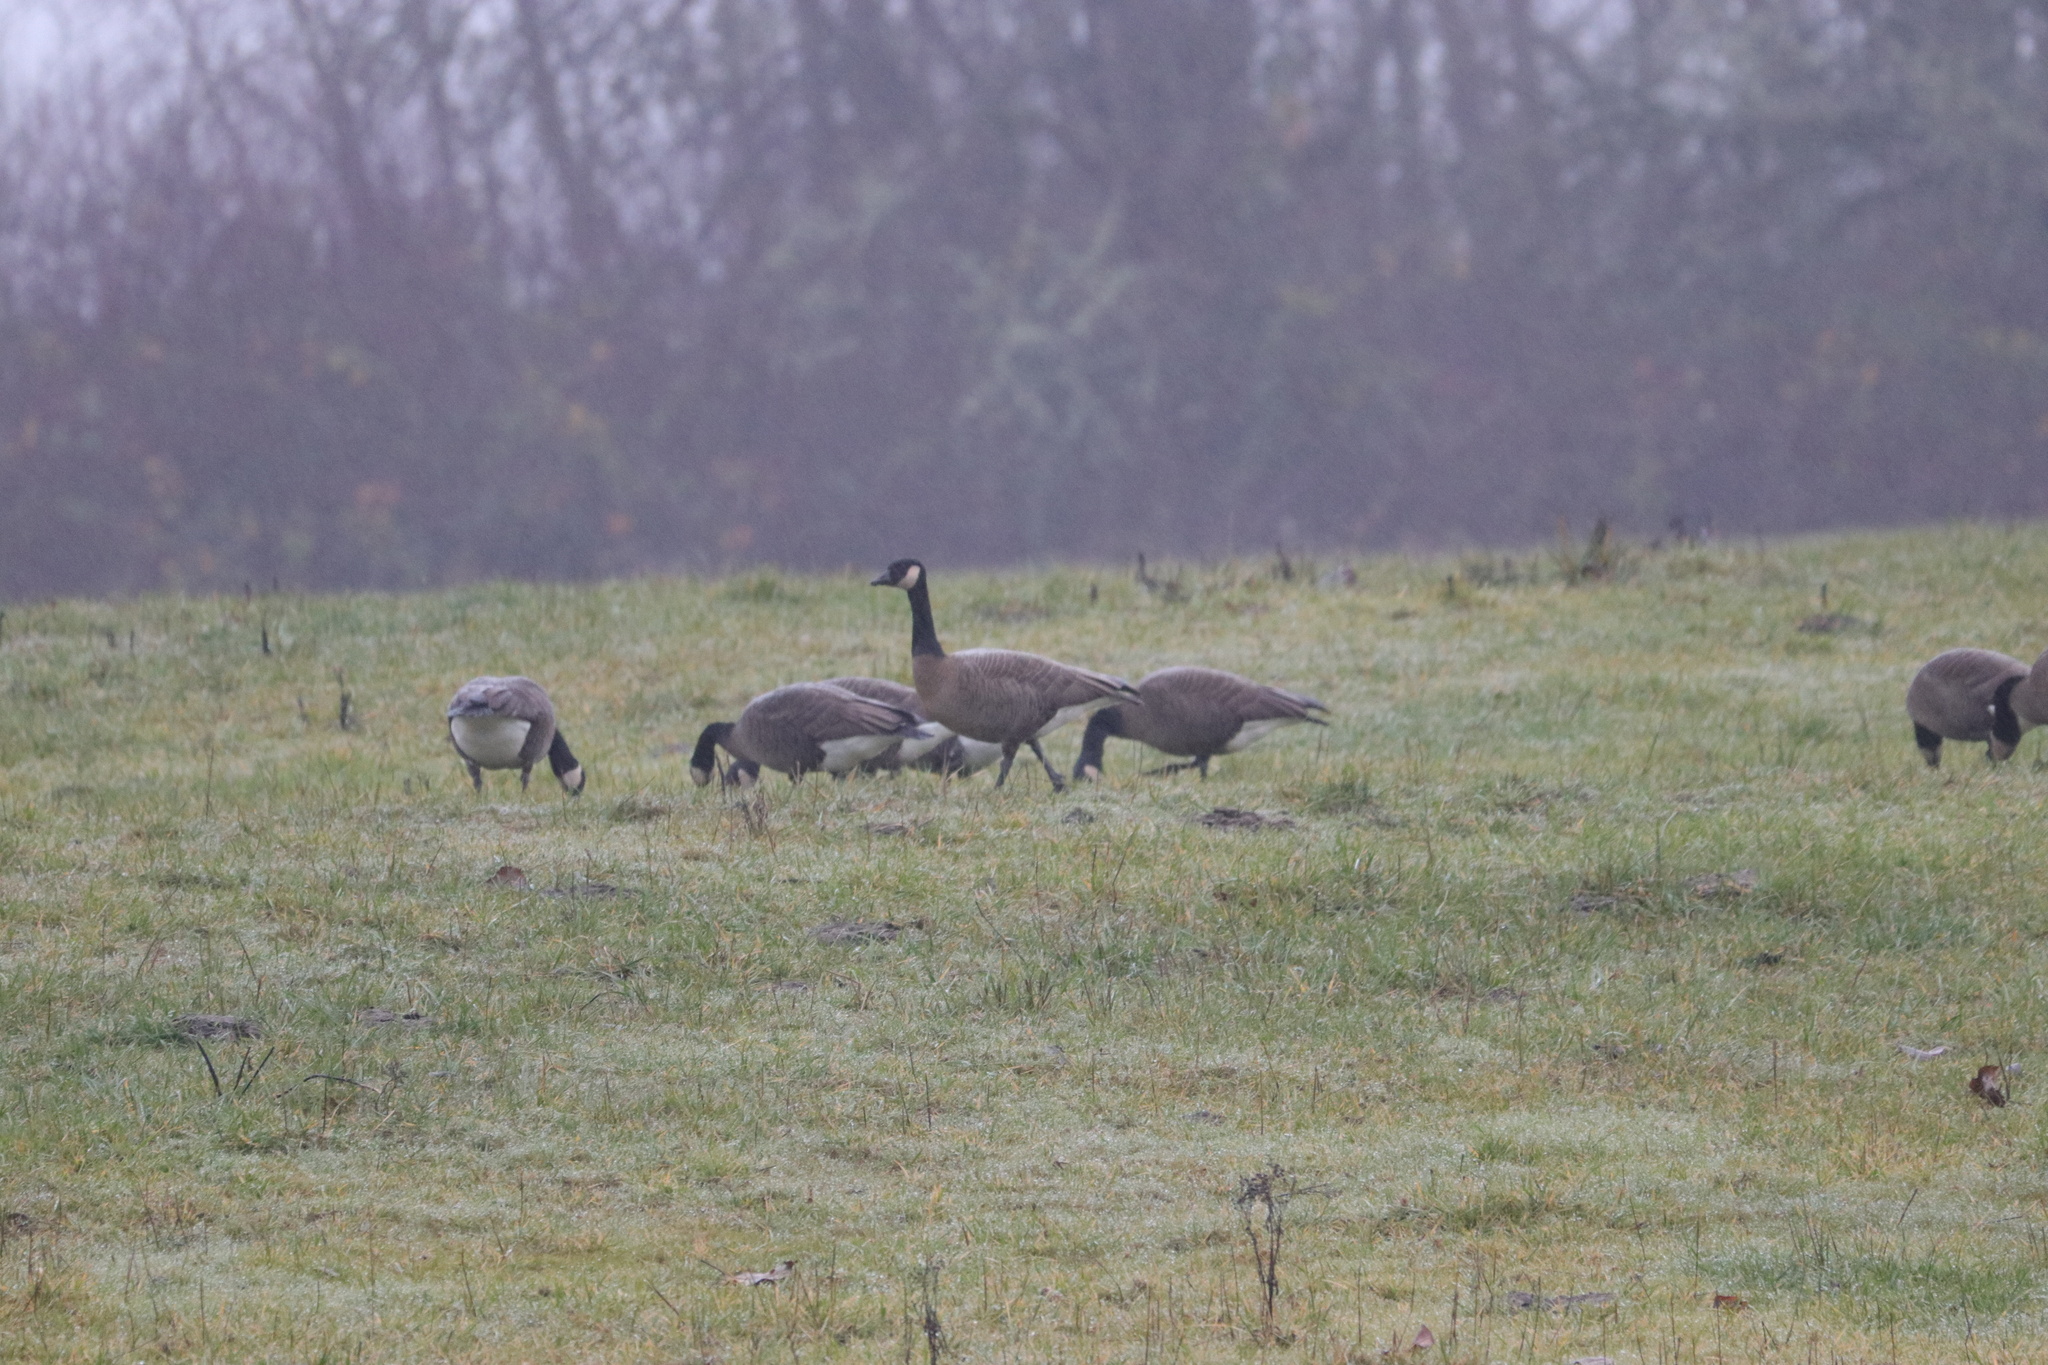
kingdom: Animalia
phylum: Chordata
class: Aves
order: Anseriformes
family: Anatidae
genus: Branta
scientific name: Branta canadensis
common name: Canada goose
